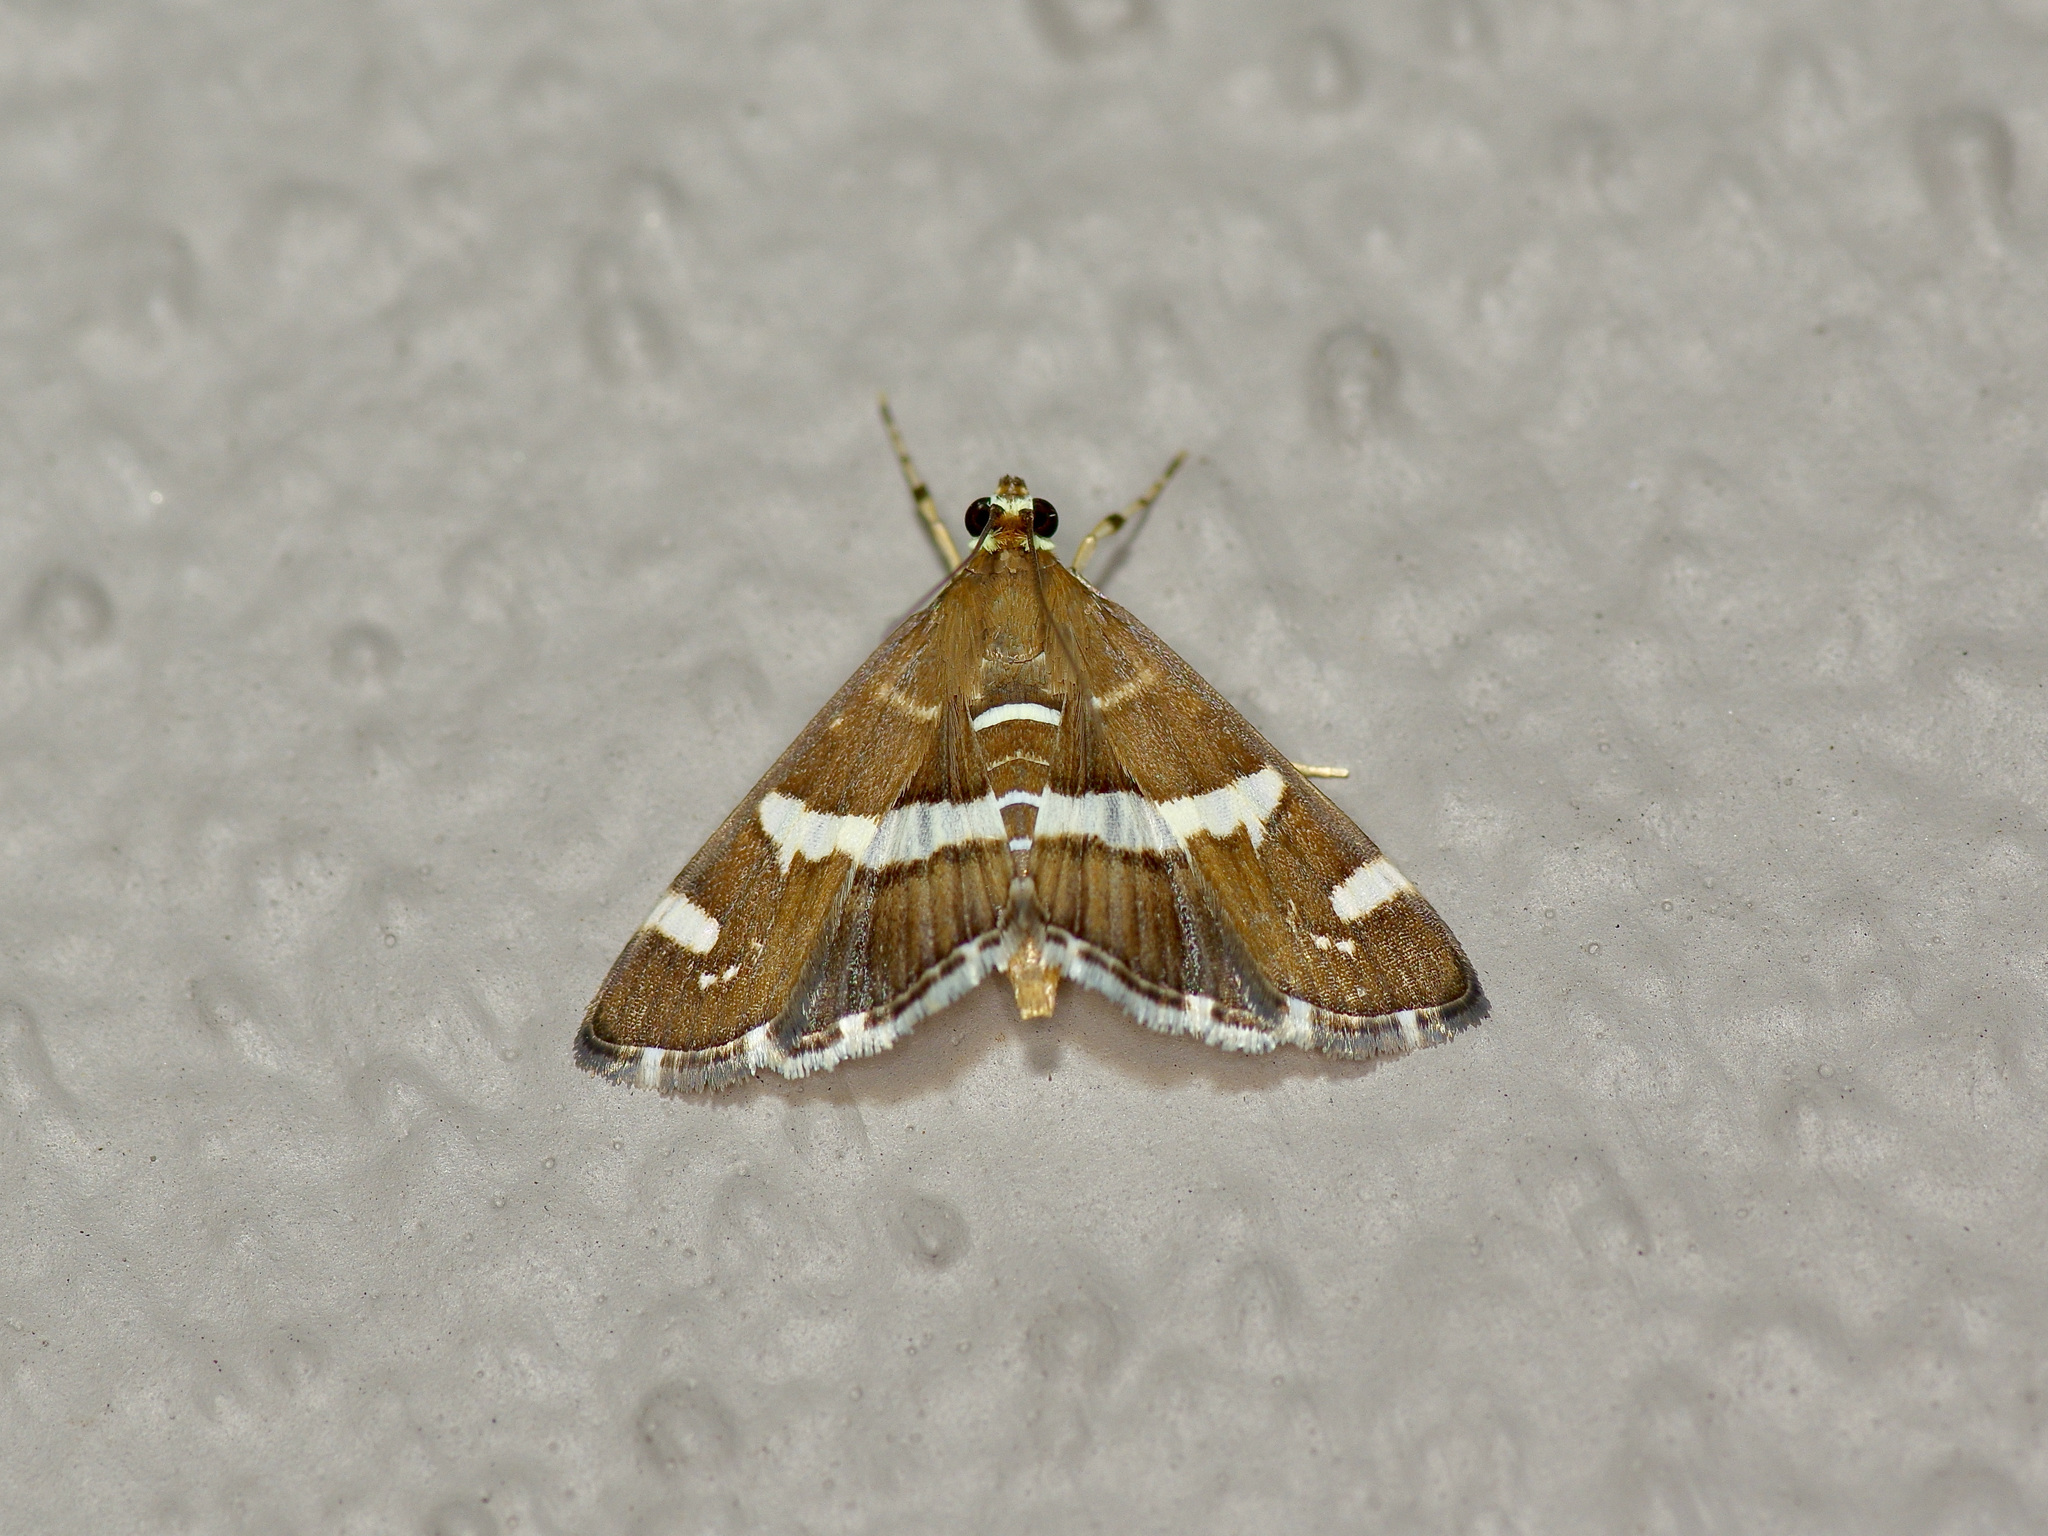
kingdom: Animalia
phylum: Arthropoda
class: Insecta
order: Lepidoptera
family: Crambidae
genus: Spoladea
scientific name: Spoladea recurvalis
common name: Beet webworm moth
